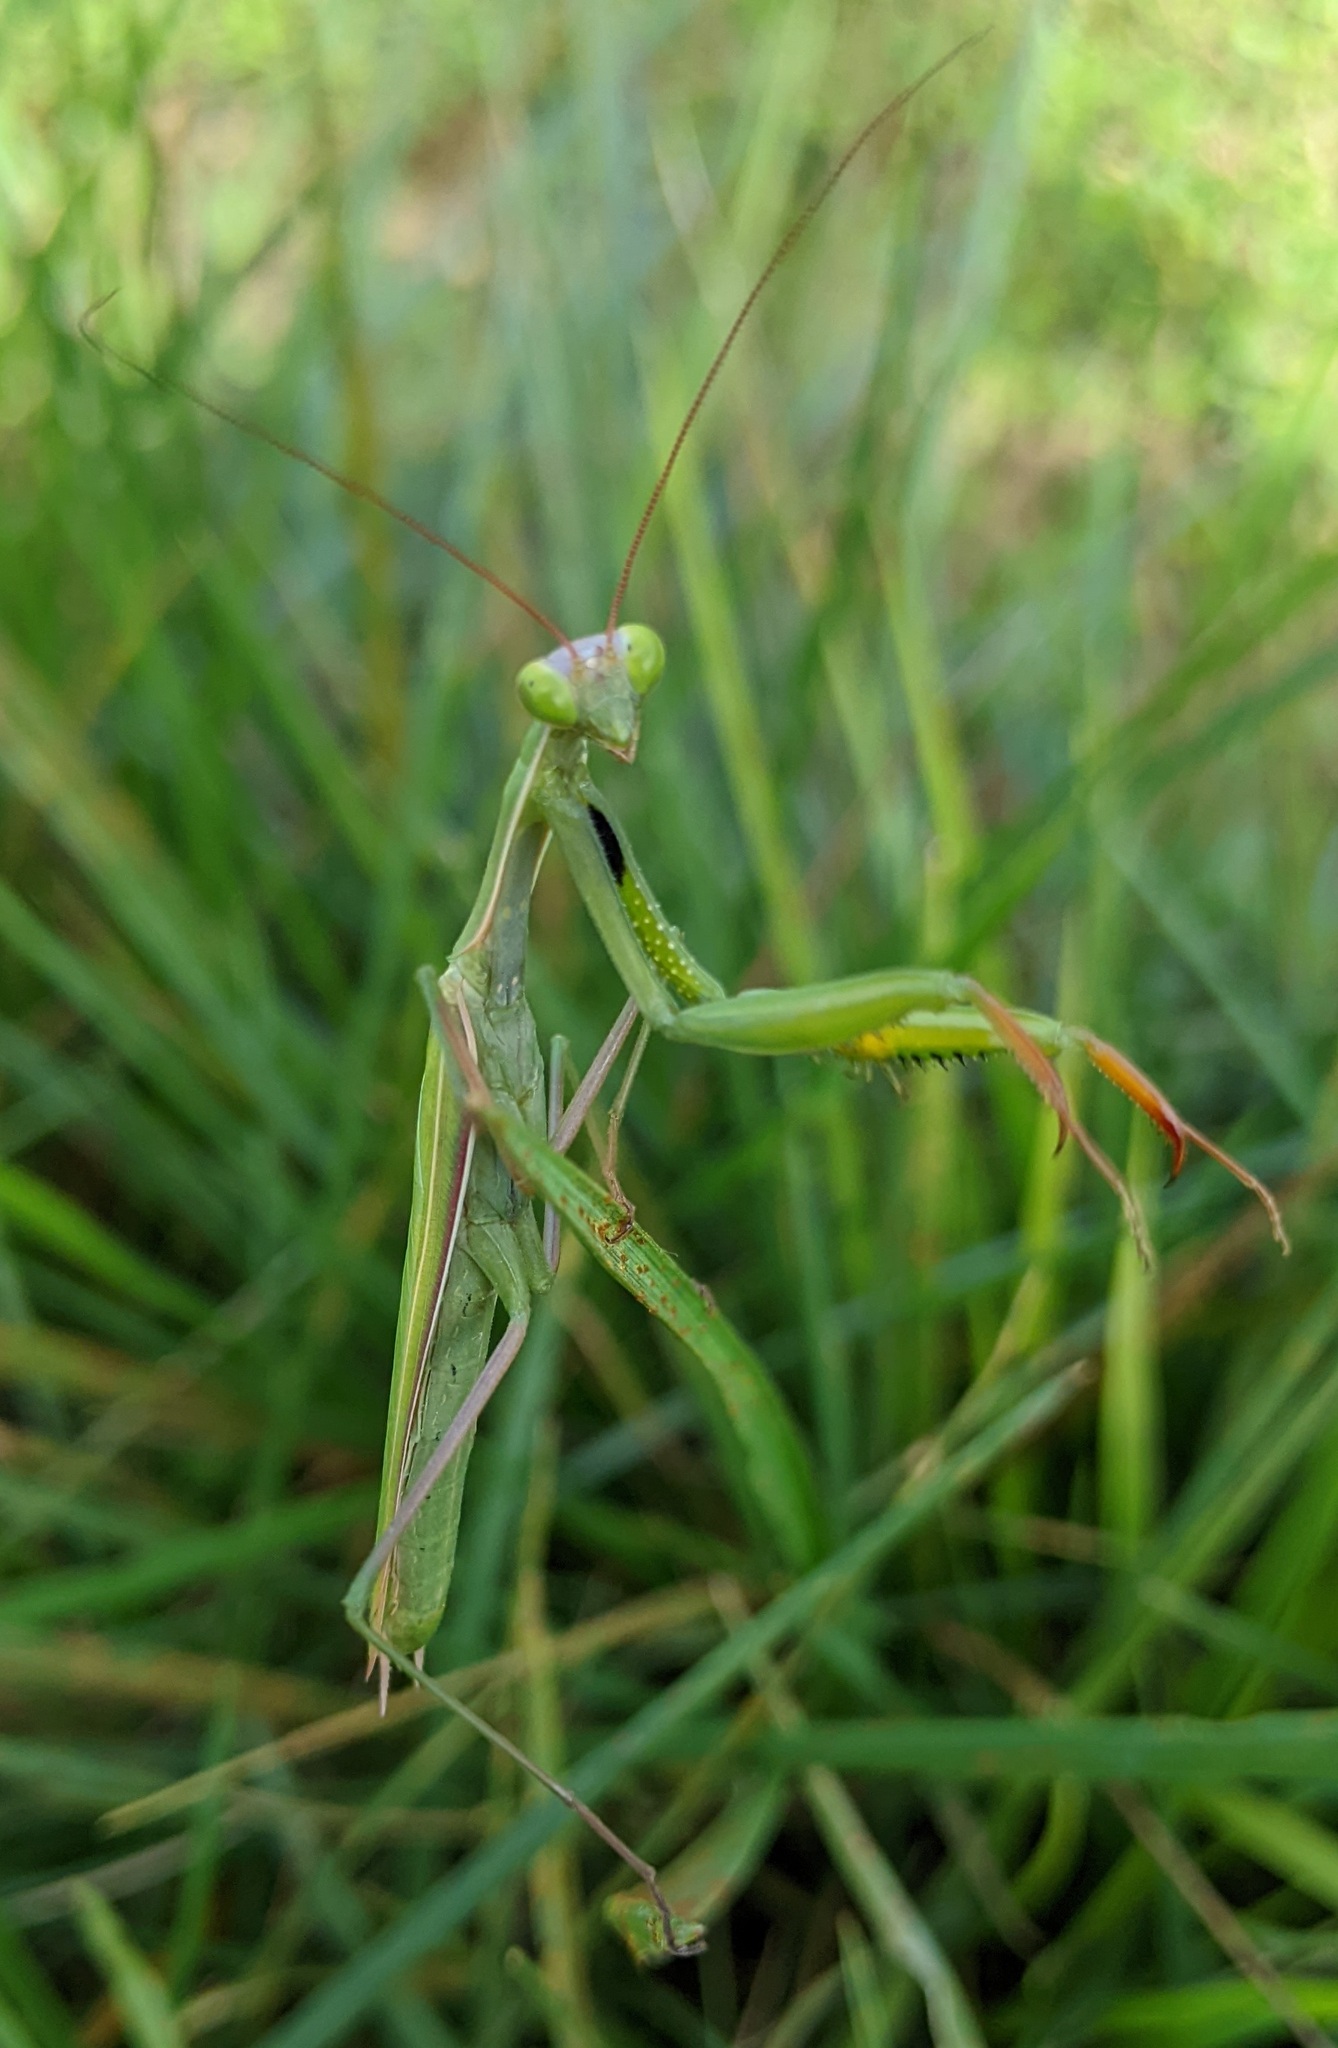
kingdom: Animalia
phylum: Arthropoda
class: Insecta
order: Mantodea
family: Mantidae
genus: Mantis
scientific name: Mantis religiosa
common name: Praying mantis
